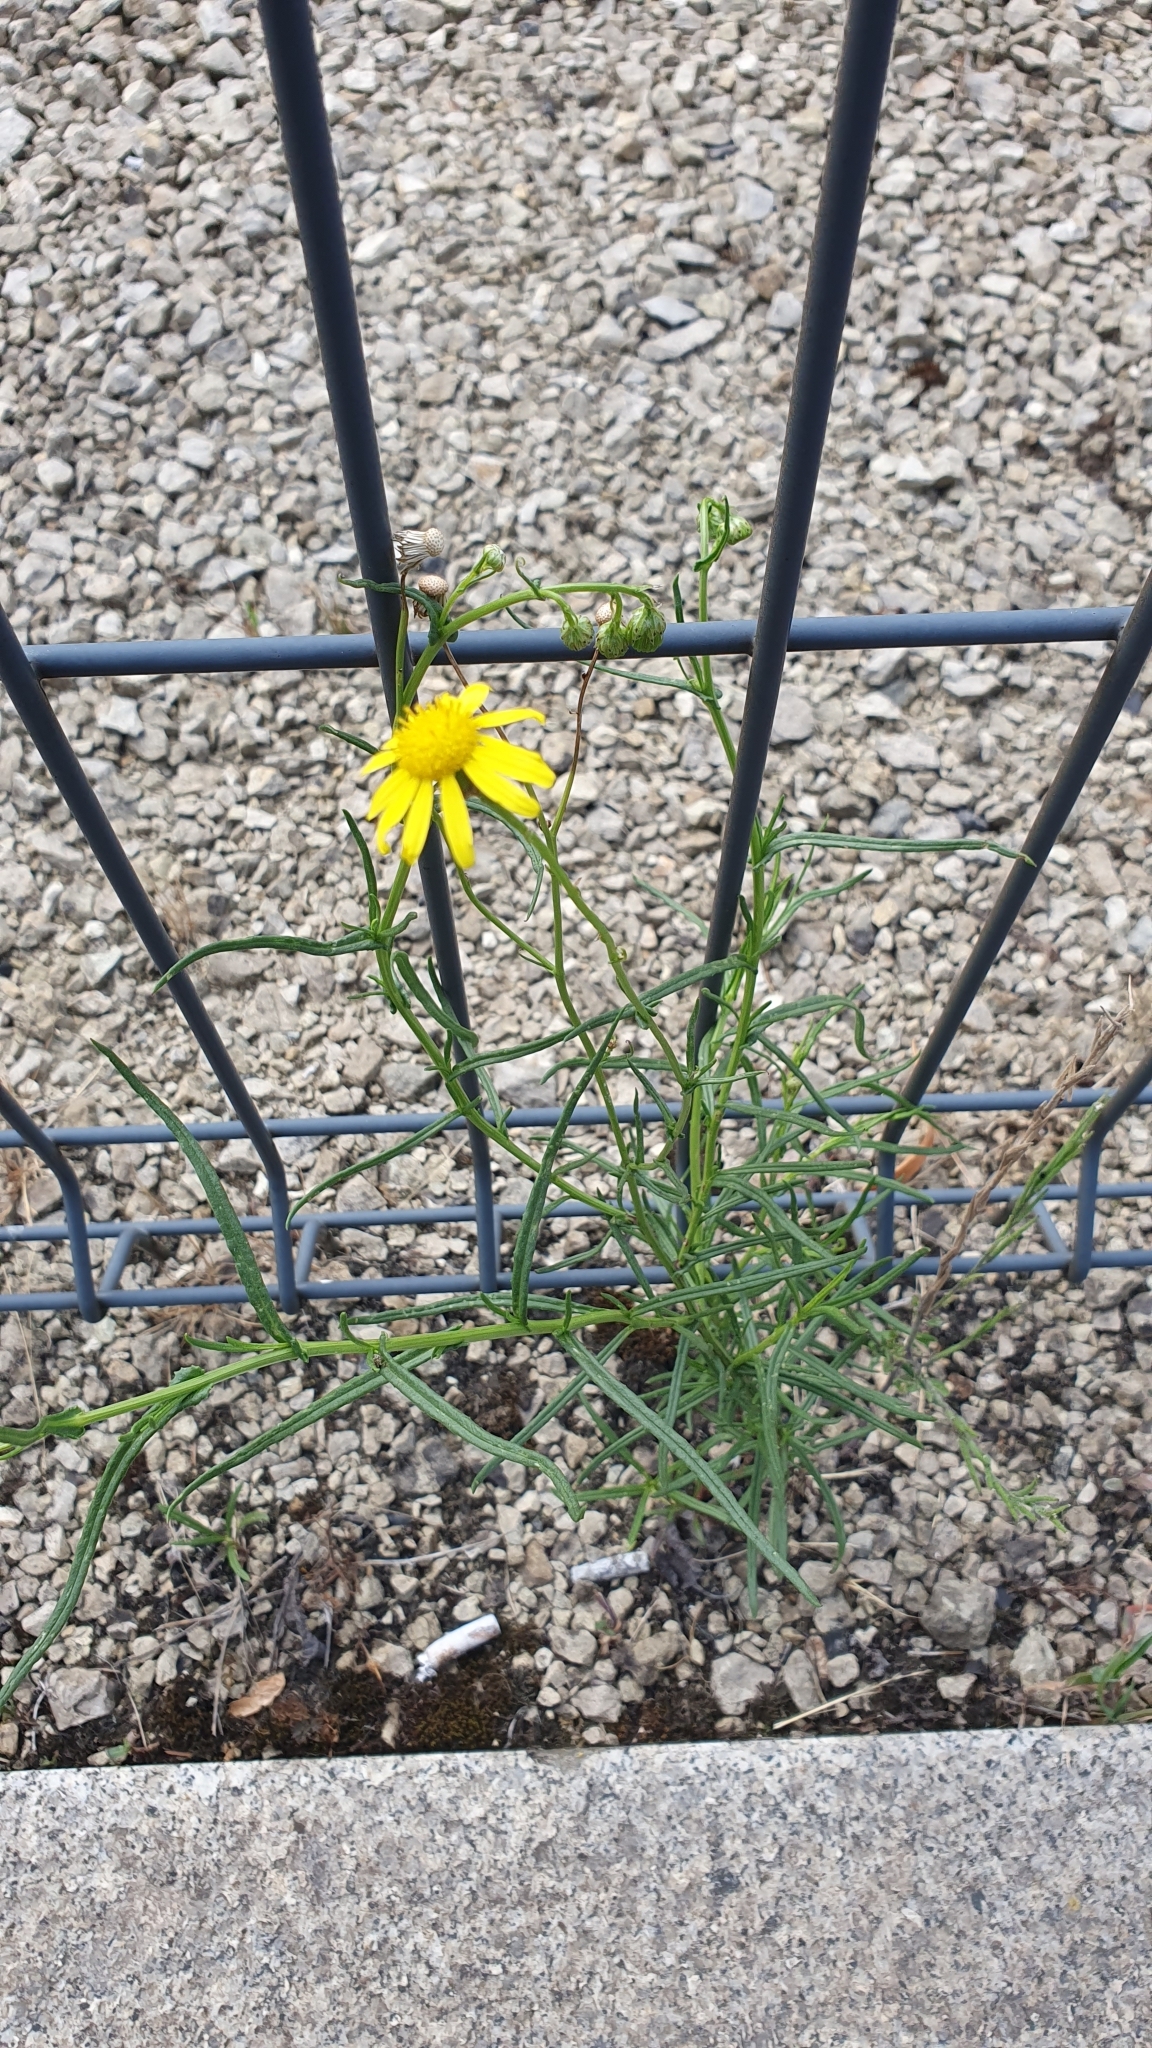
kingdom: Plantae
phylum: Tracheophyta
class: Magnoliopsida
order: Asterales
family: Asteraceae
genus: Senecio
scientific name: Senecio inaequidens
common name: Narrow-leaved ragwort
